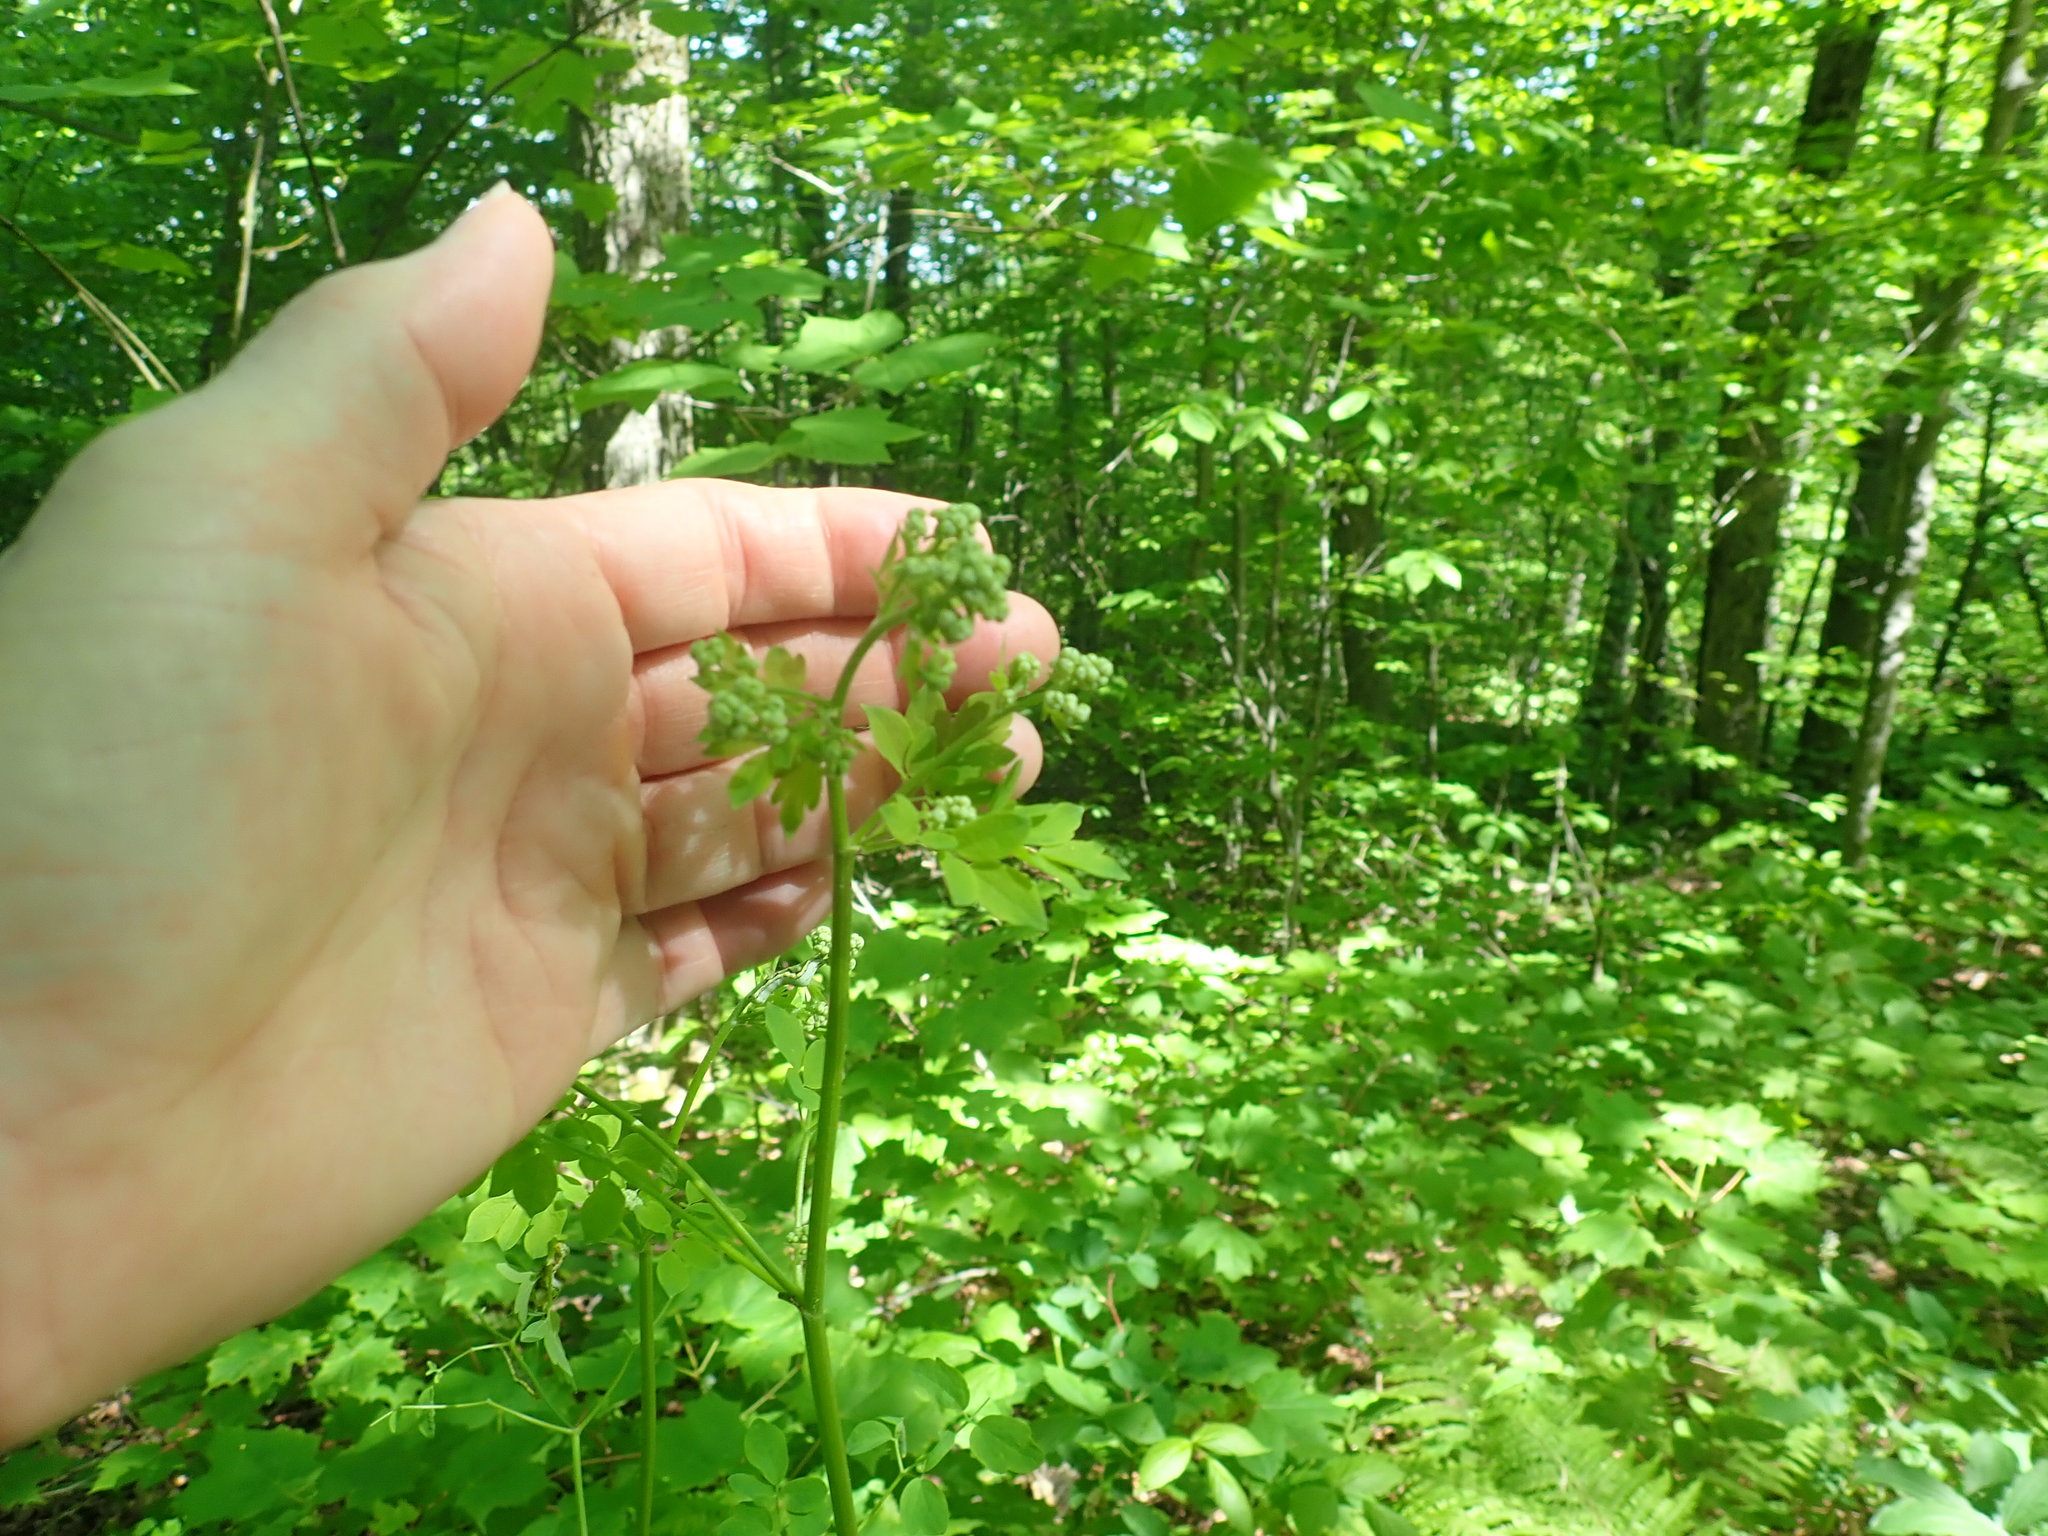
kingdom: Plantae
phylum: Tracheophyta
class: Magnoliopsida
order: Ranunculales
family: Ranunculaceae
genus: Thalictrum
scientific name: Thalictrum pubescens
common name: King-of-the-meadow
